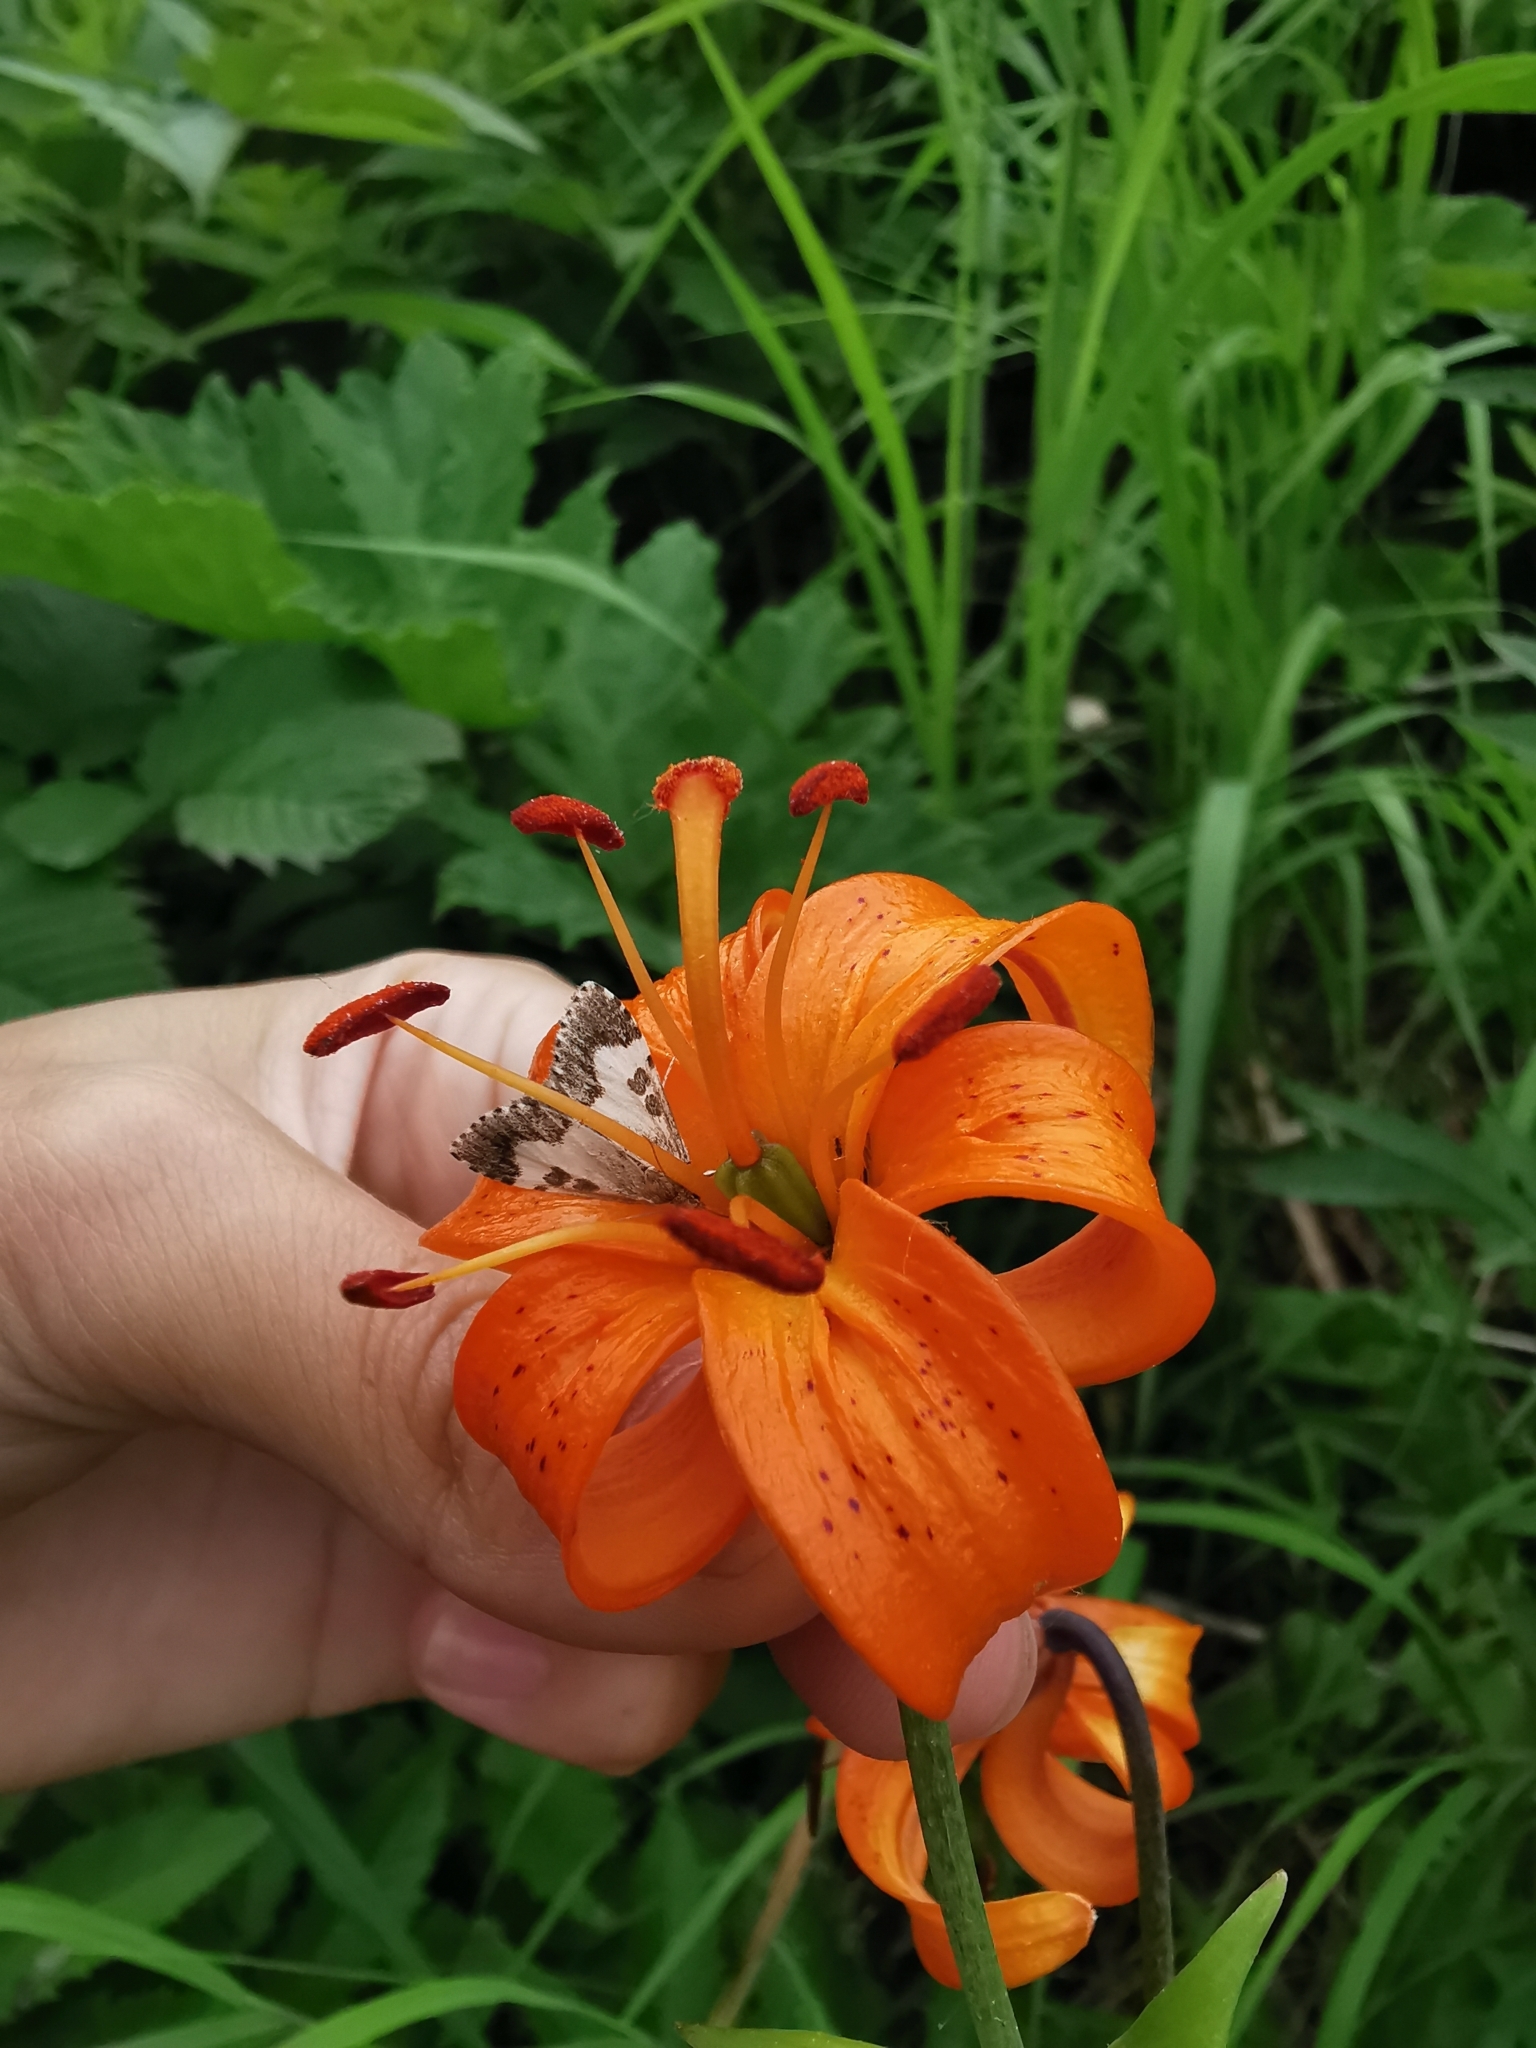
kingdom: Animalia
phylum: Arthropoda
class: Insecta
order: Lepidoptera
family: Crambidae
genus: Udea
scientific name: Udea hamalis
